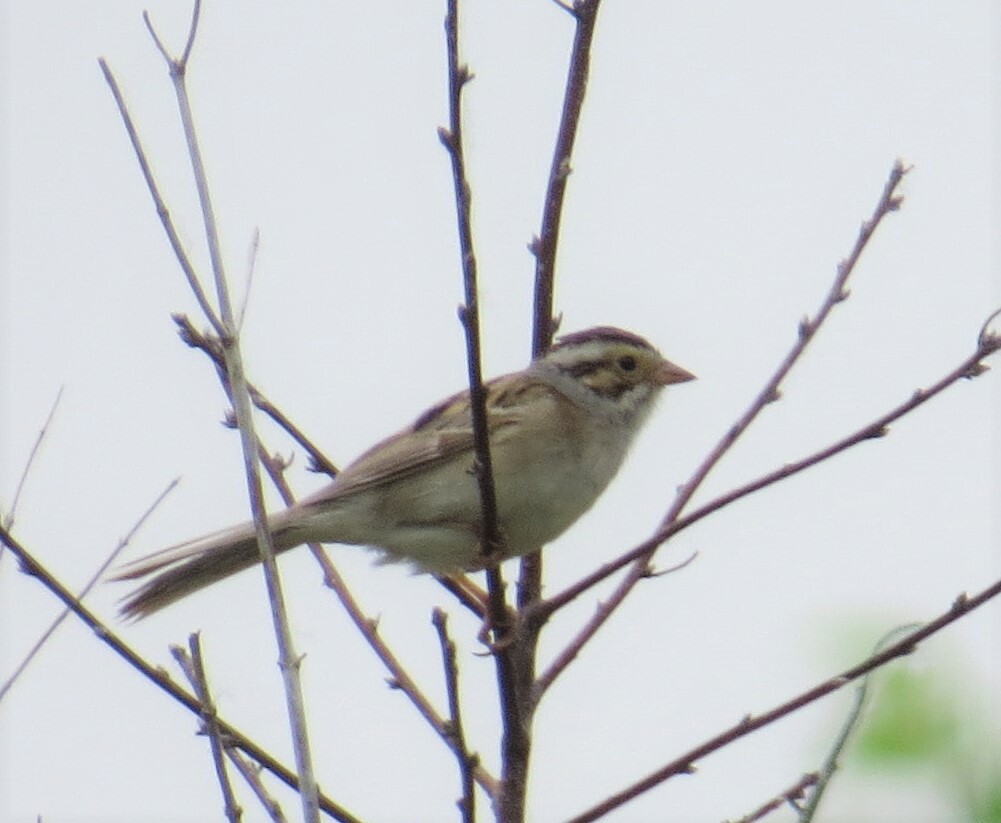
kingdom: Animalia
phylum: Chordata
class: Aves
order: Passeriformes
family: Passerellidae
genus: Spizella
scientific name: Spizella pallida
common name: Clay-colored sparrow
